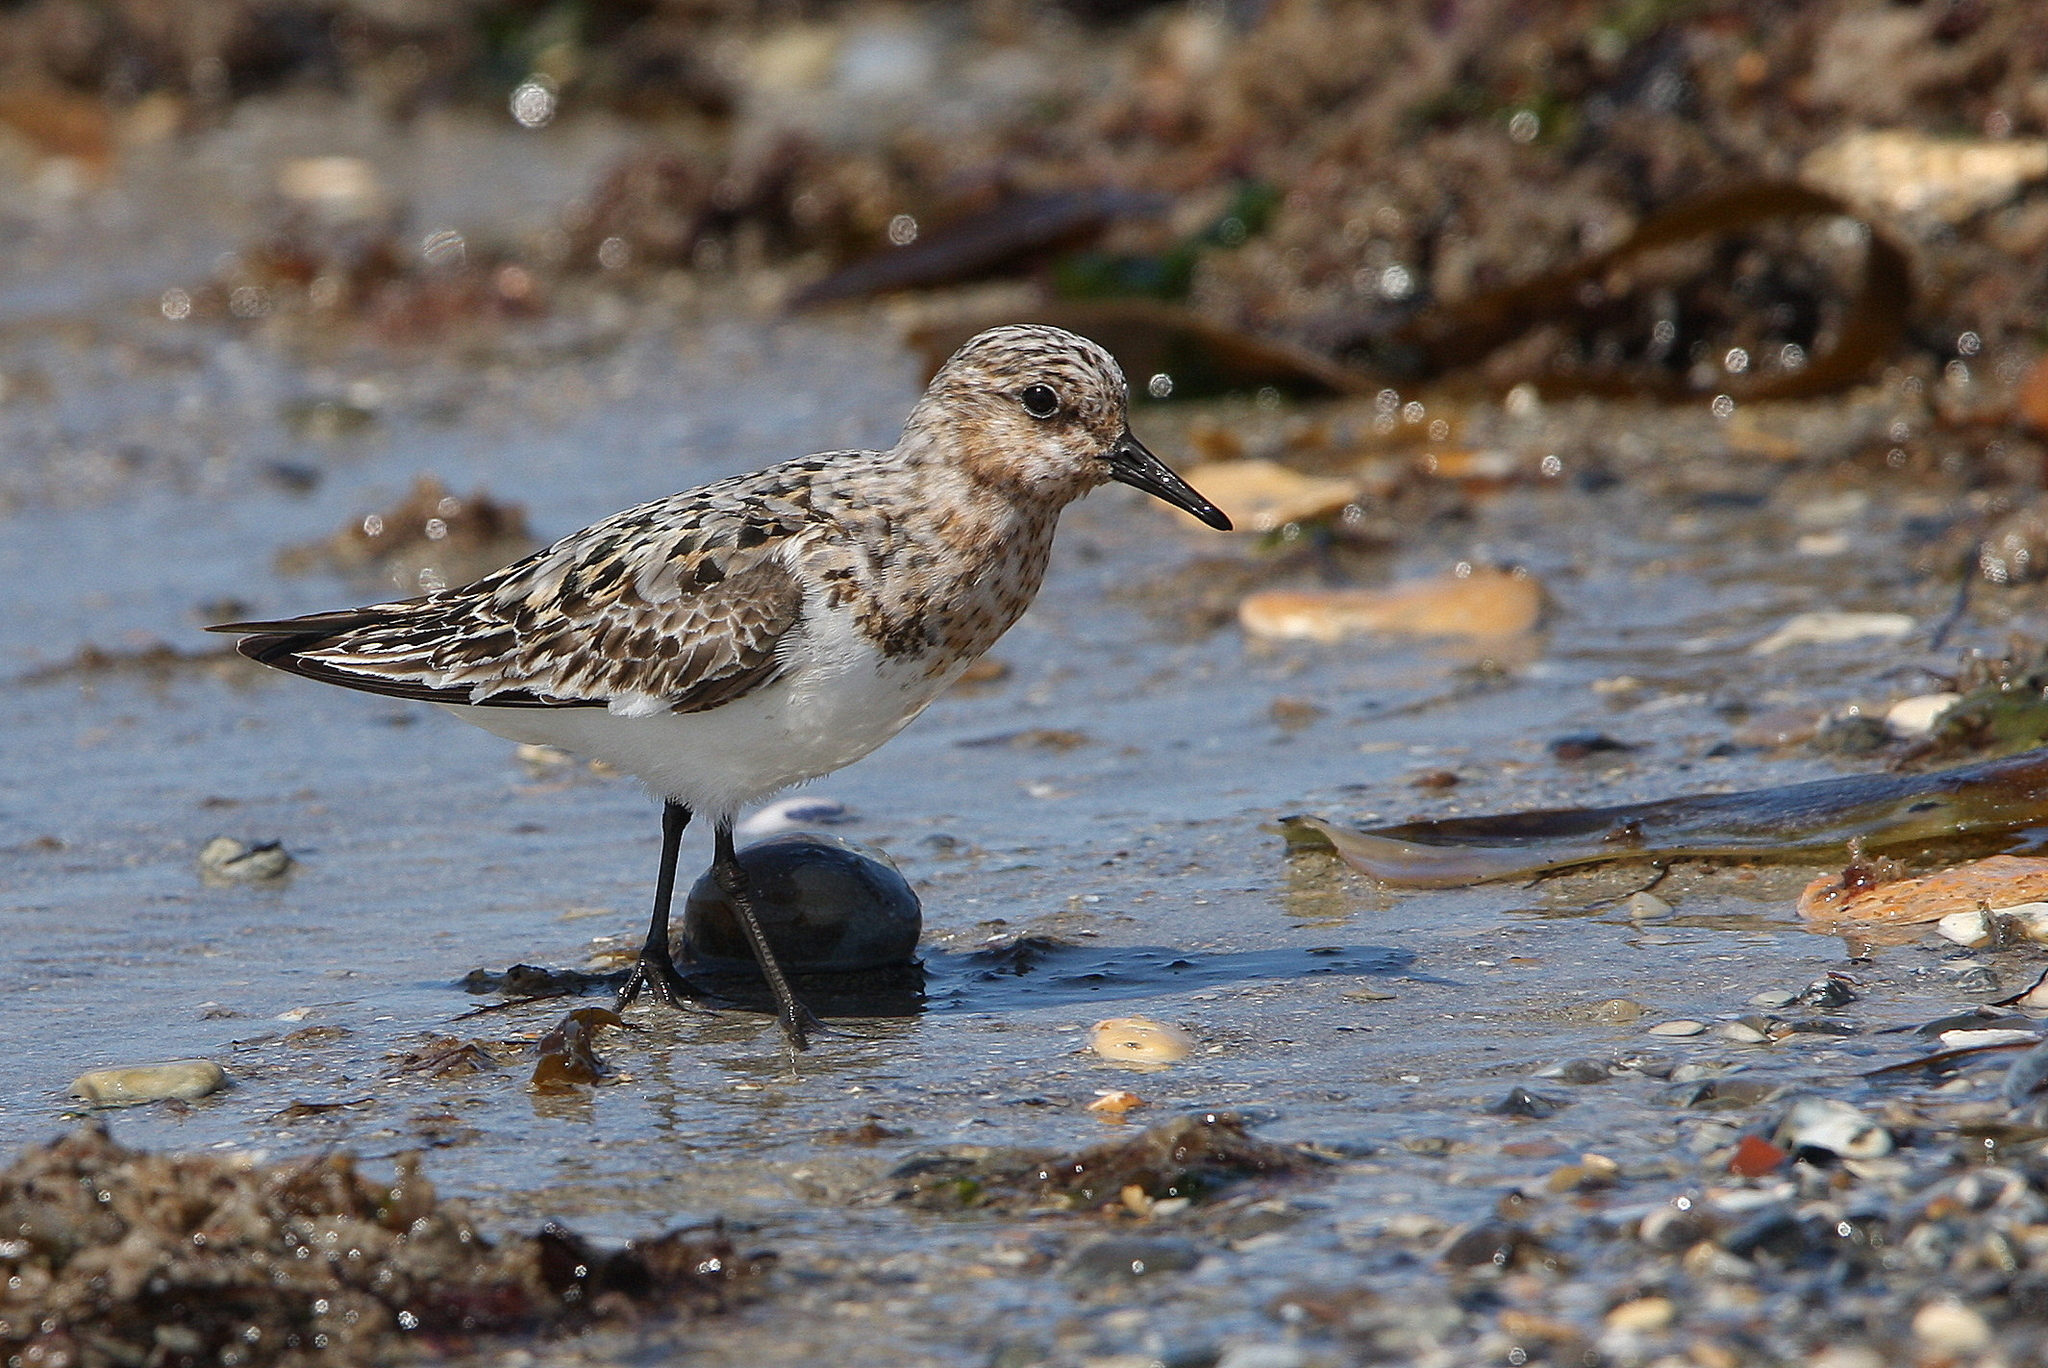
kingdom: Animalia
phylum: Chordata
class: Aves
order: Charadriiformes
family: Scolopacidae
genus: Calidris
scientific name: Calidris alba
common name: Sanderling
